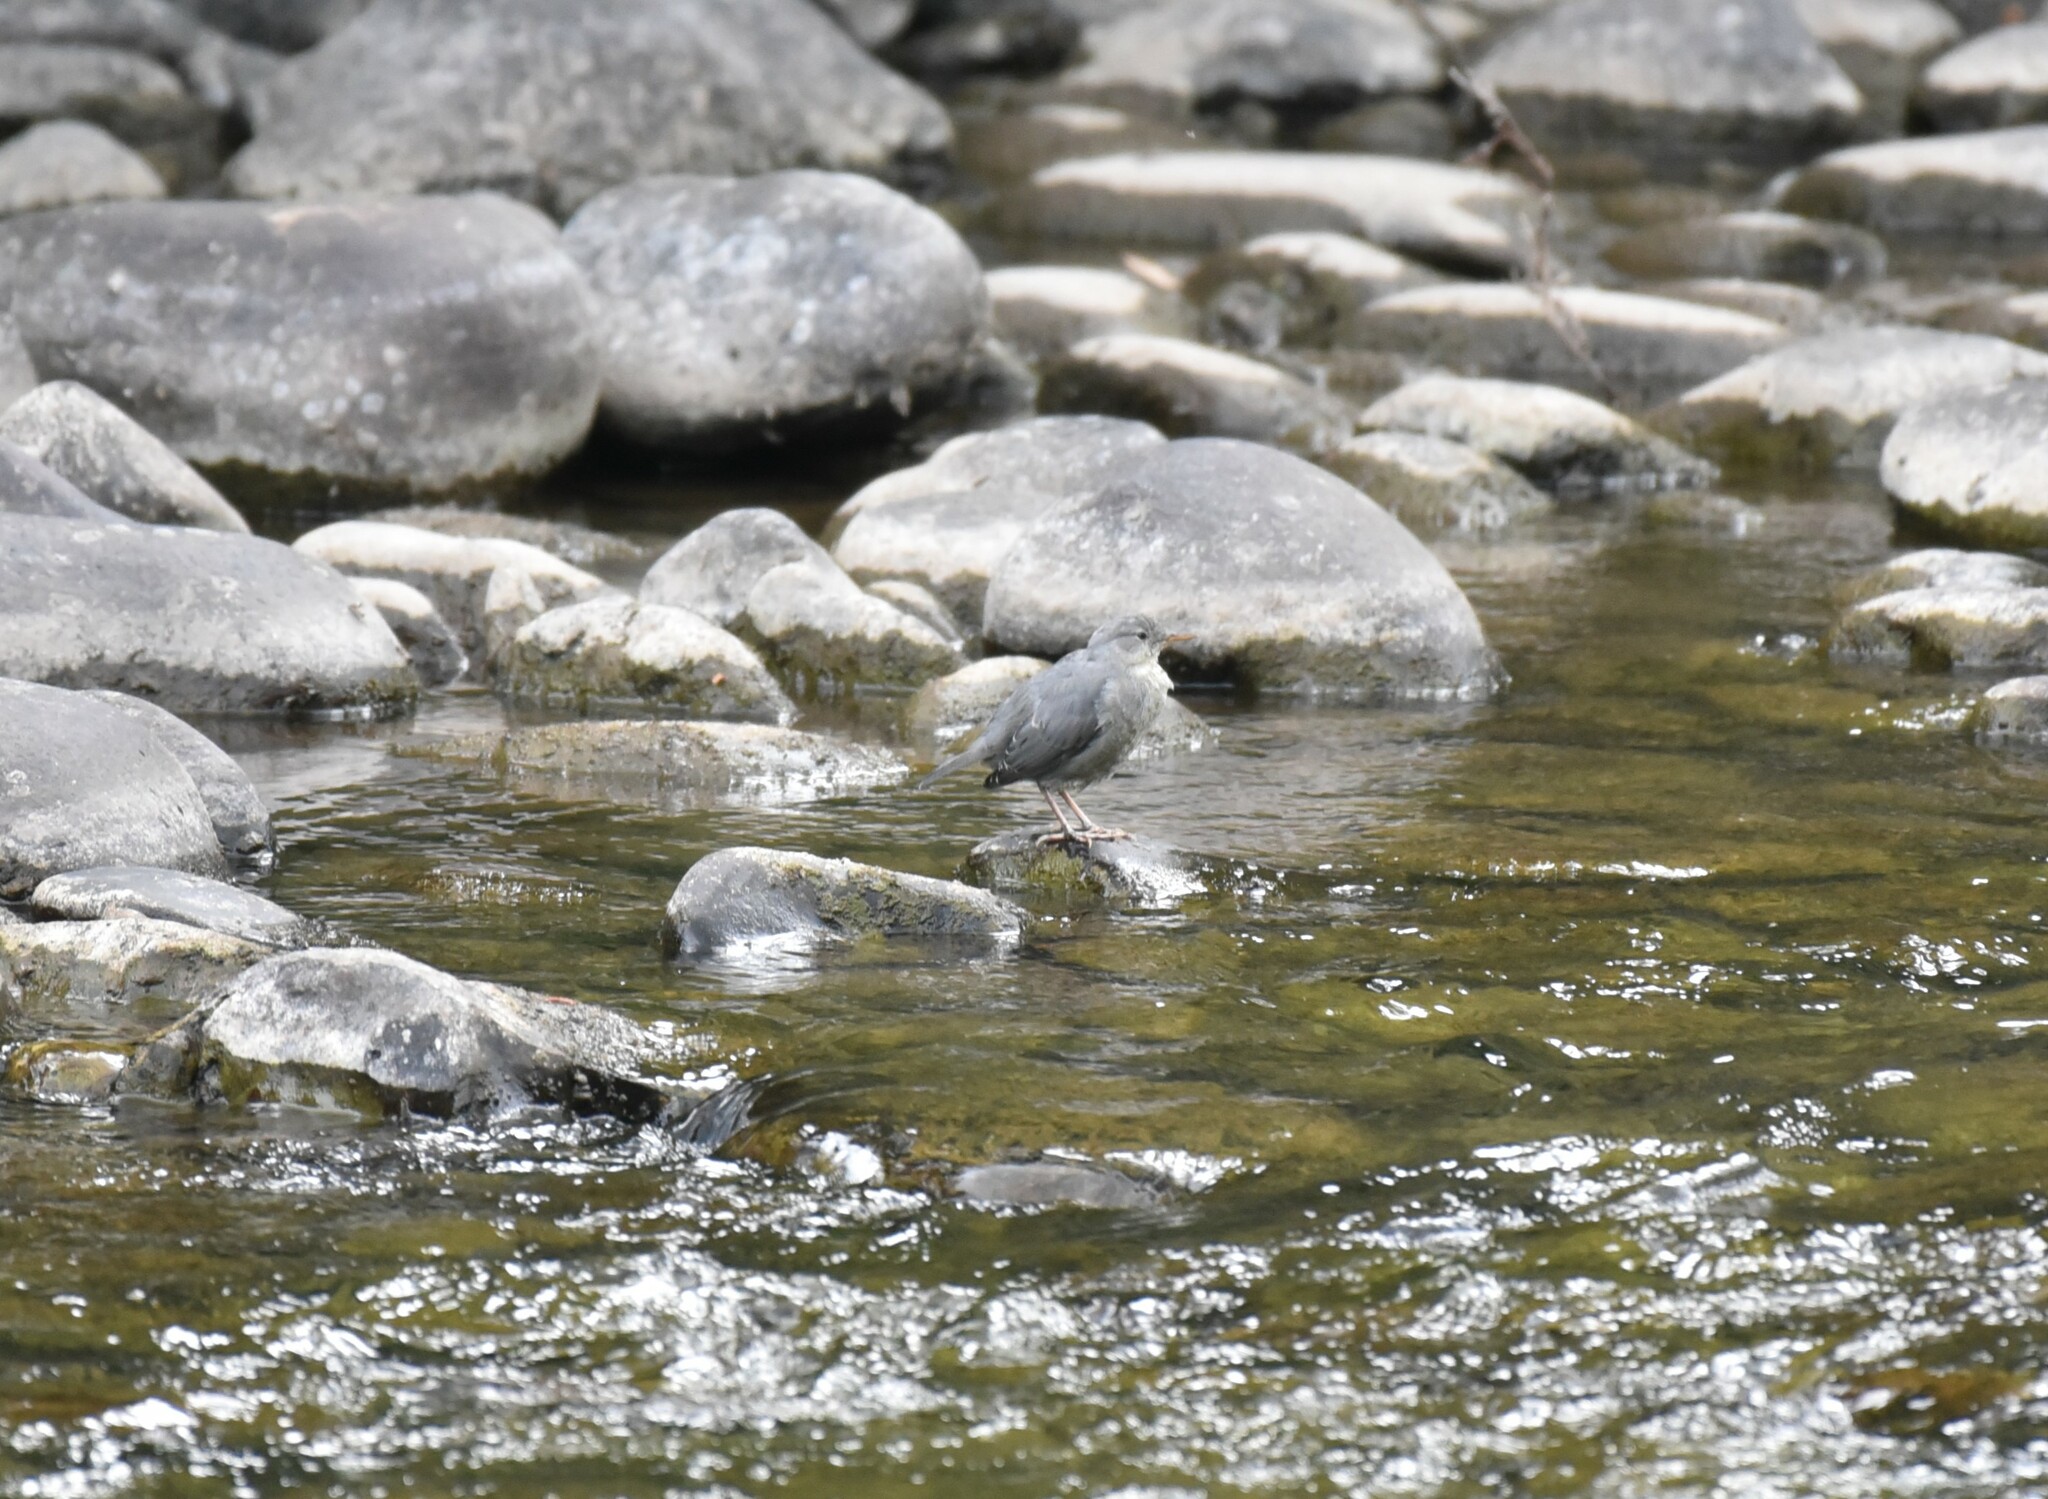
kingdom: Animalia
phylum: Chordata
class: Aves
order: Passeriformes
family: Cinclidae
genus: Cinclus
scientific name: Cinclus mexicanus
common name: American dipper
